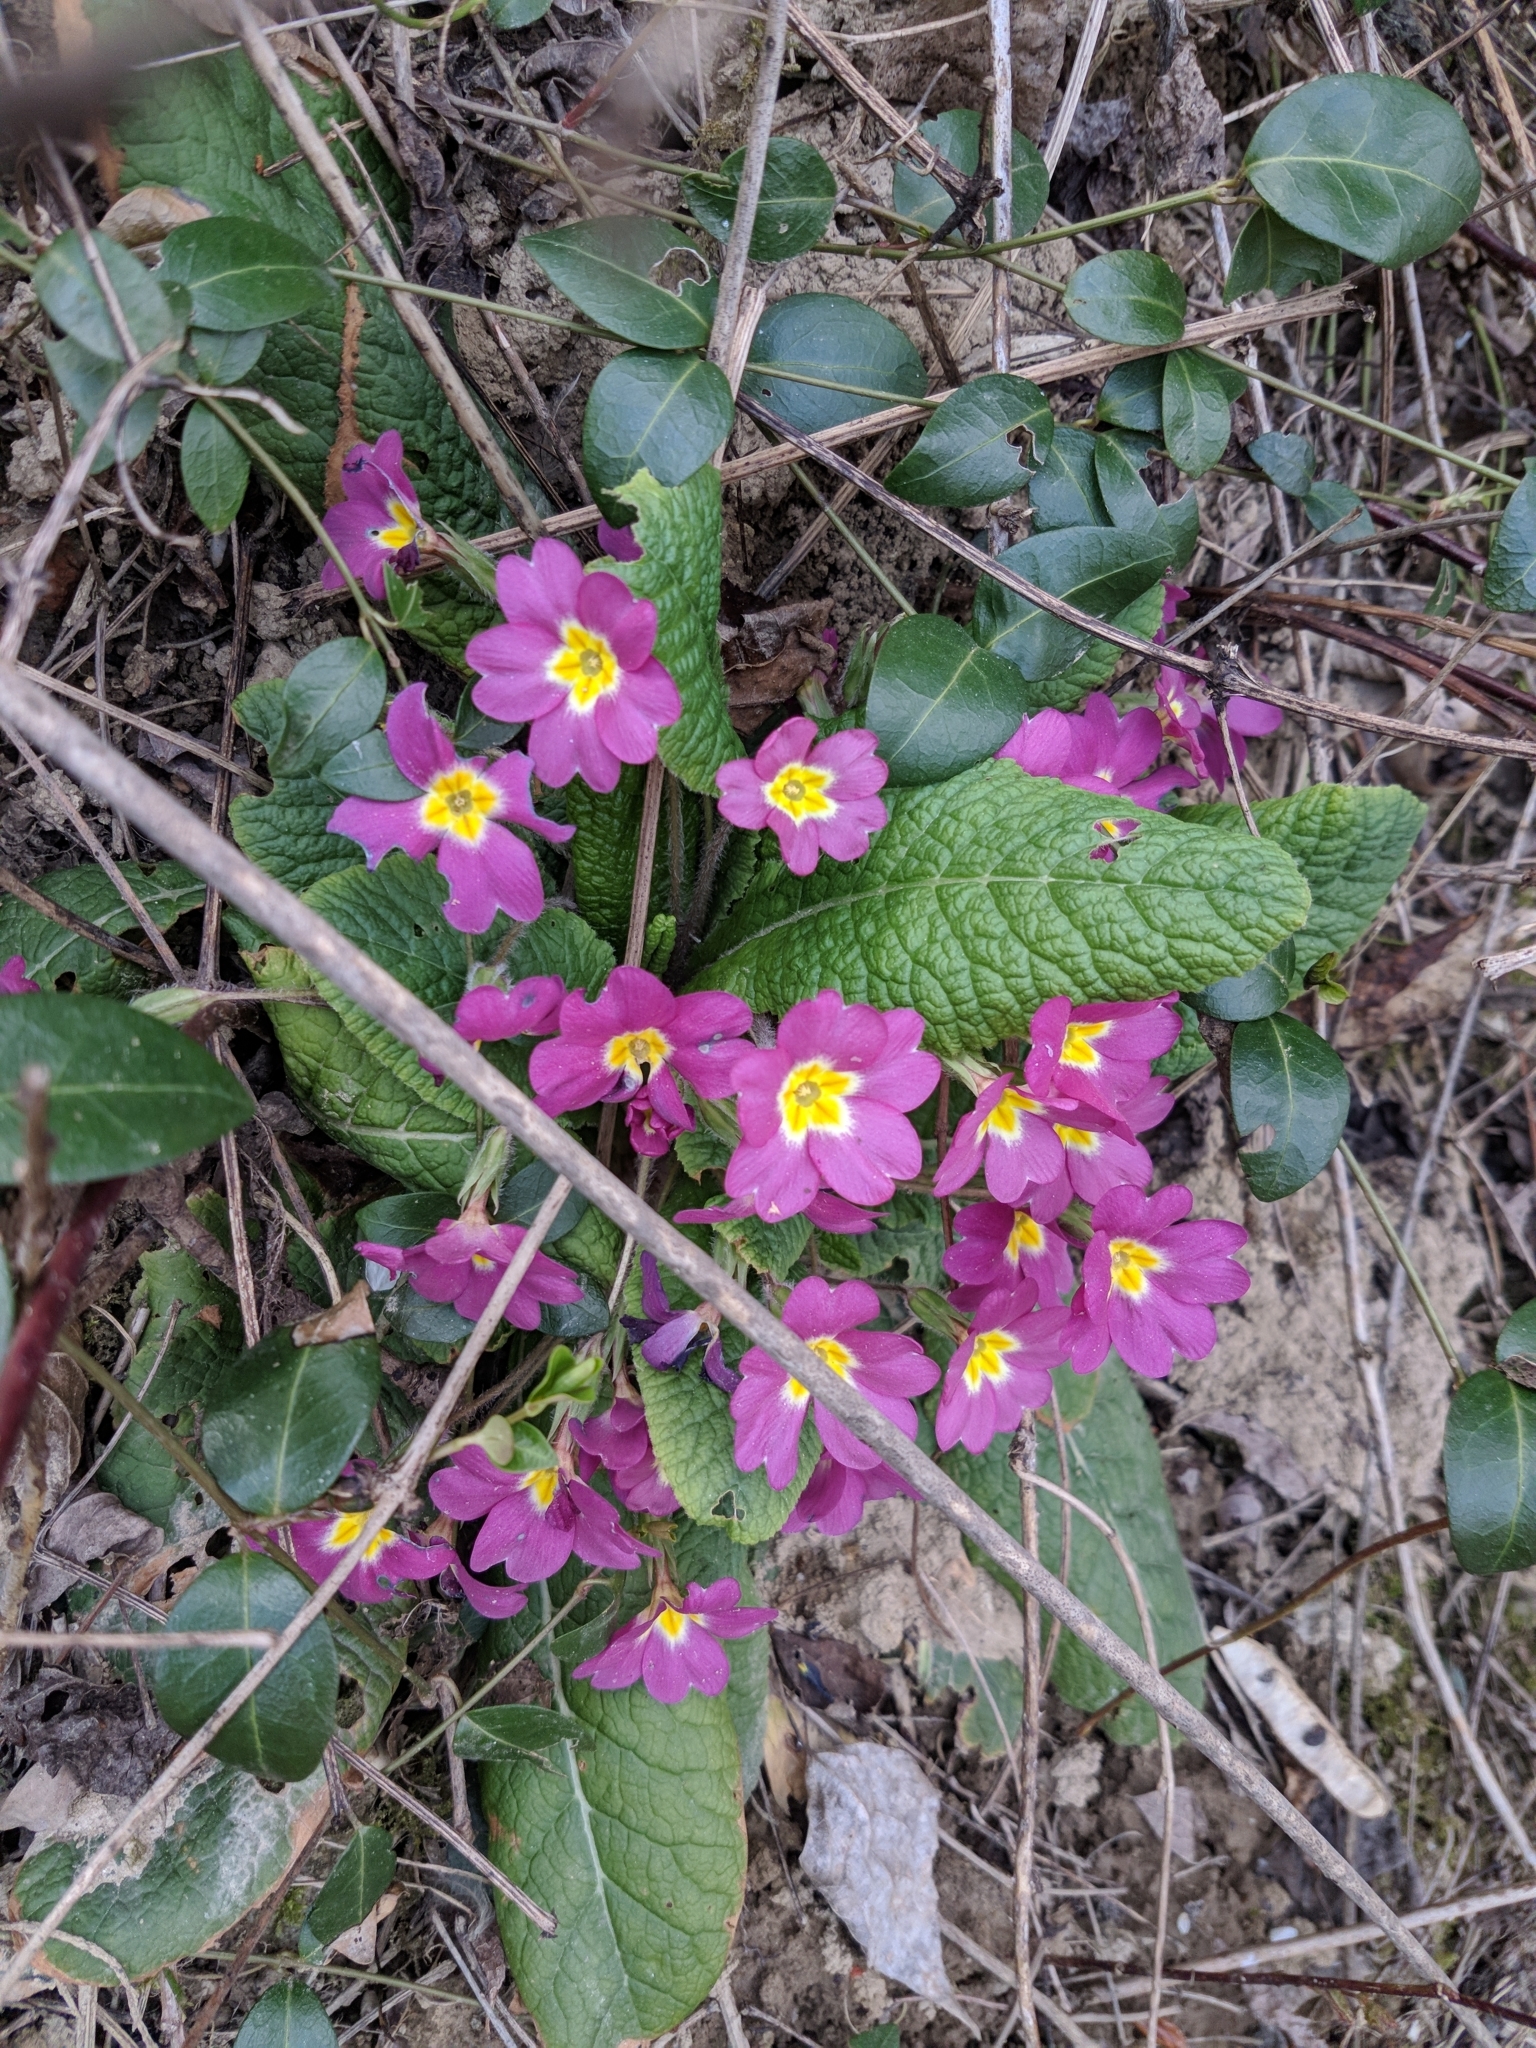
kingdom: Plantae
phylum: Tracheophyta
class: Magnoliopsida
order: Ericales
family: Primulaceae
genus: Primula
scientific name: Primula vulgaris
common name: Primrose
